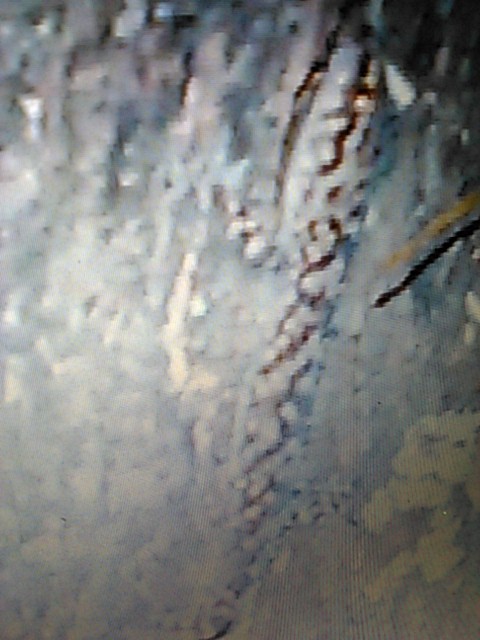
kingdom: Animalia
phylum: Chordata
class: Squamata
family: Gekkonidae
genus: Hemidactylus
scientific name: Hemidactylus turcicus
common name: Turkish gecko
